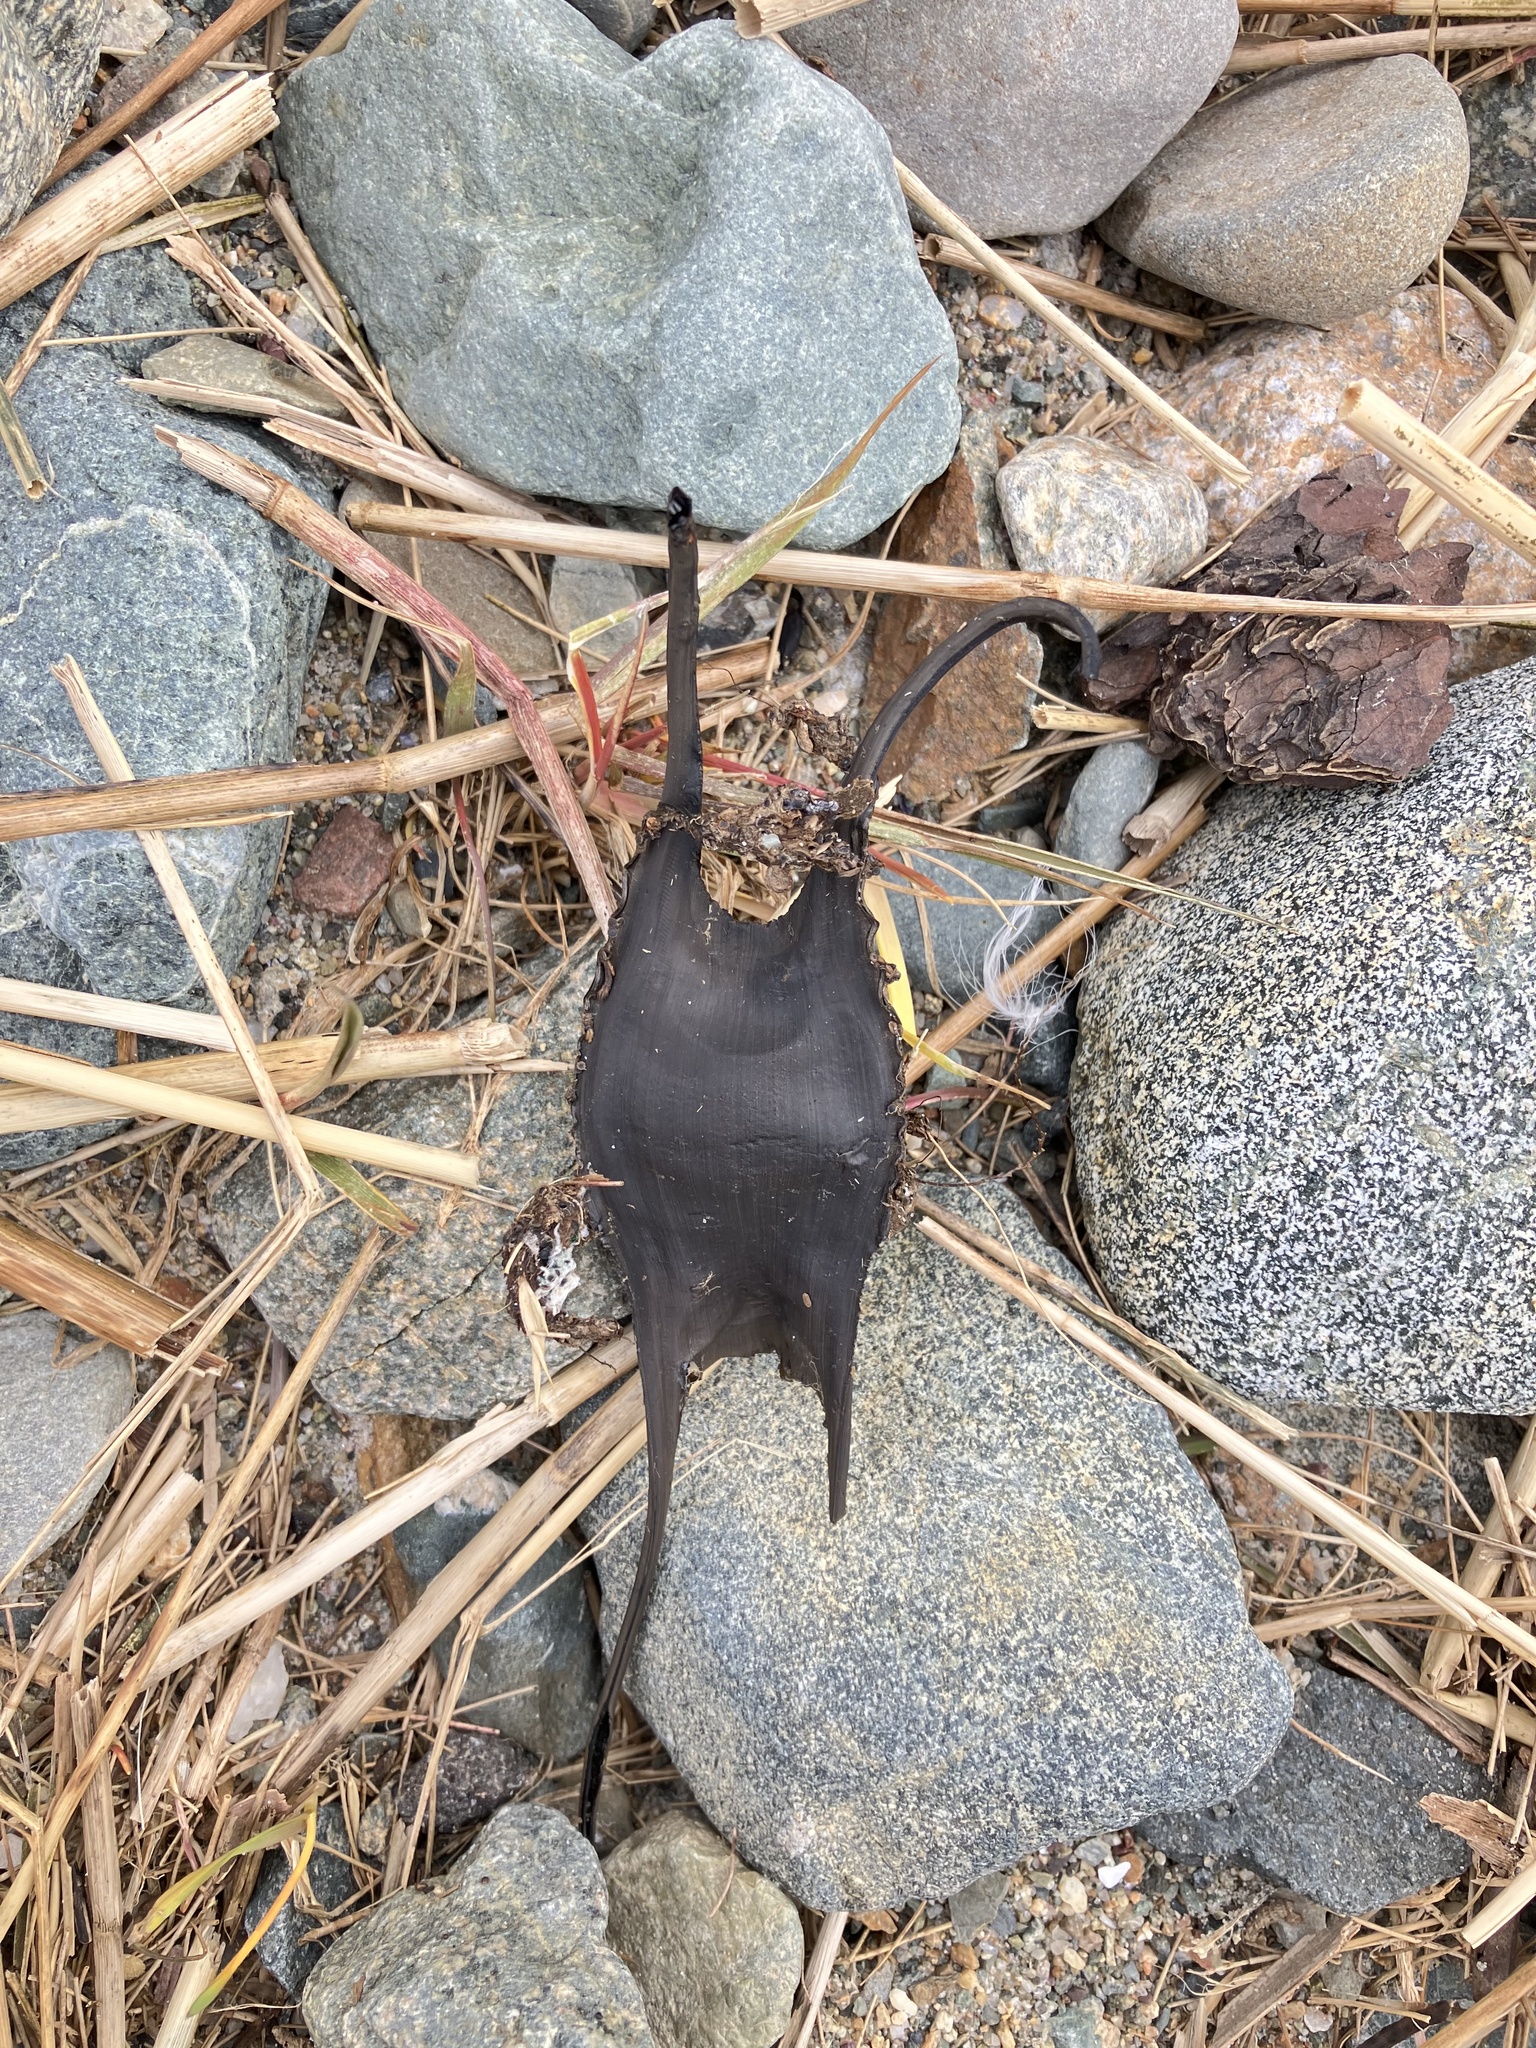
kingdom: Animalia
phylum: Chordata
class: Elasmobranchii
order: Rajiformes
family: Rajidae
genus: Leucoraja
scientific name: Leucoraja ocellata
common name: Winter skate
